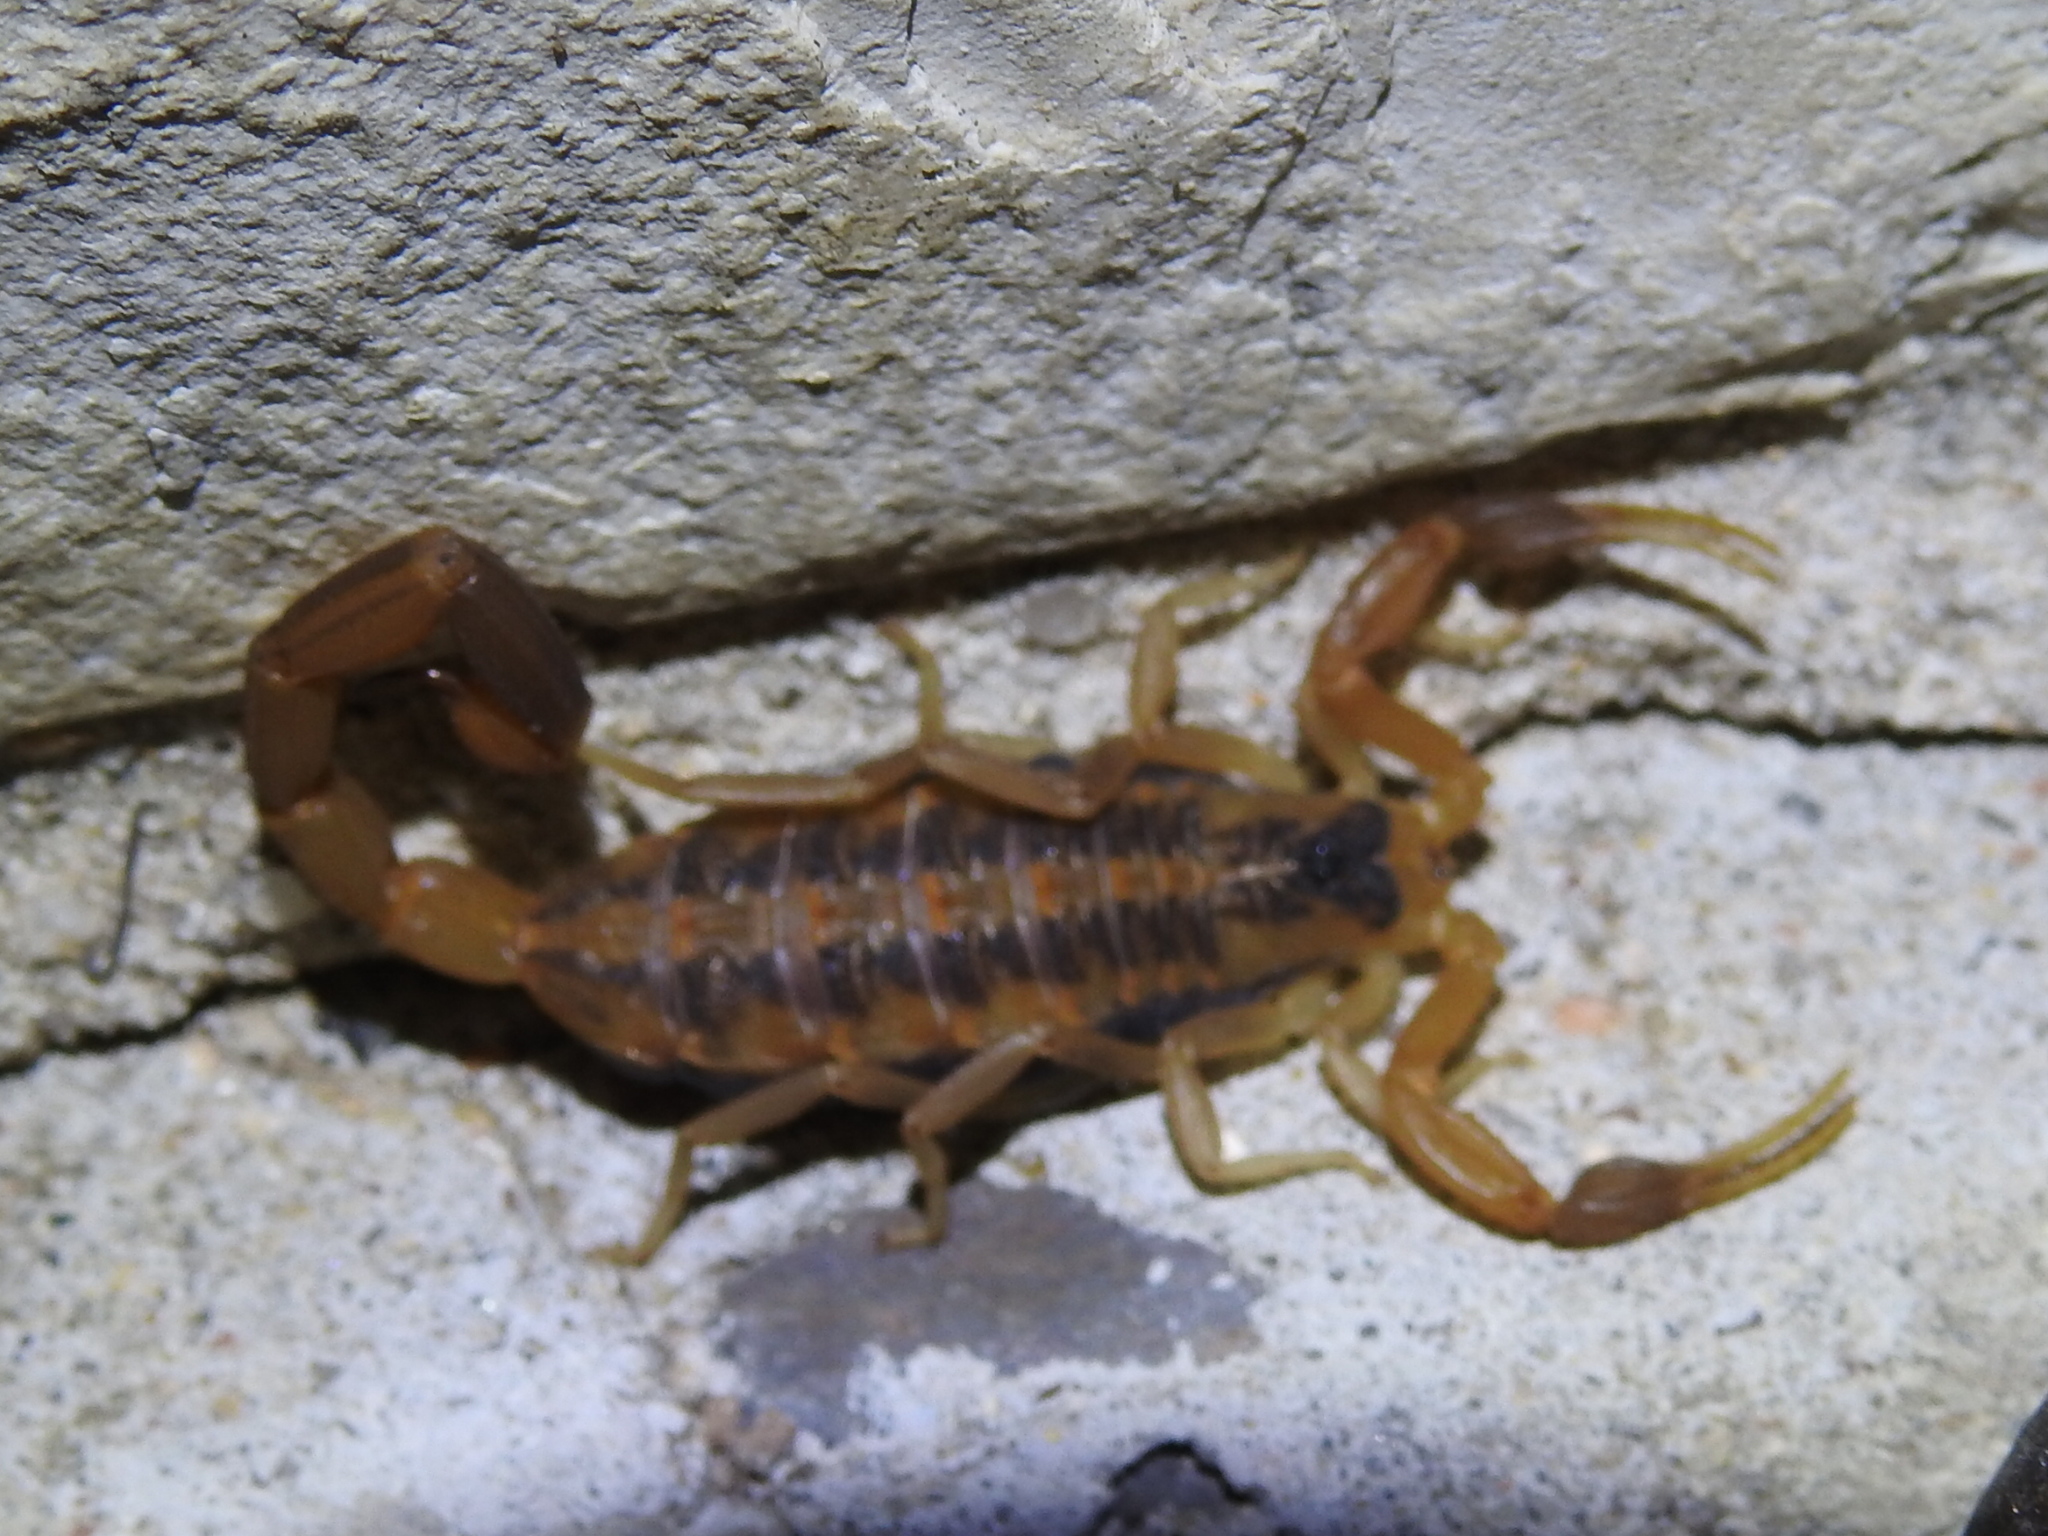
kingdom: Animalia
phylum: Arthropoda
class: Arachnida
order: Scorpiones
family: Buthidae
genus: Centruroides
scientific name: Centruroides vittatus
